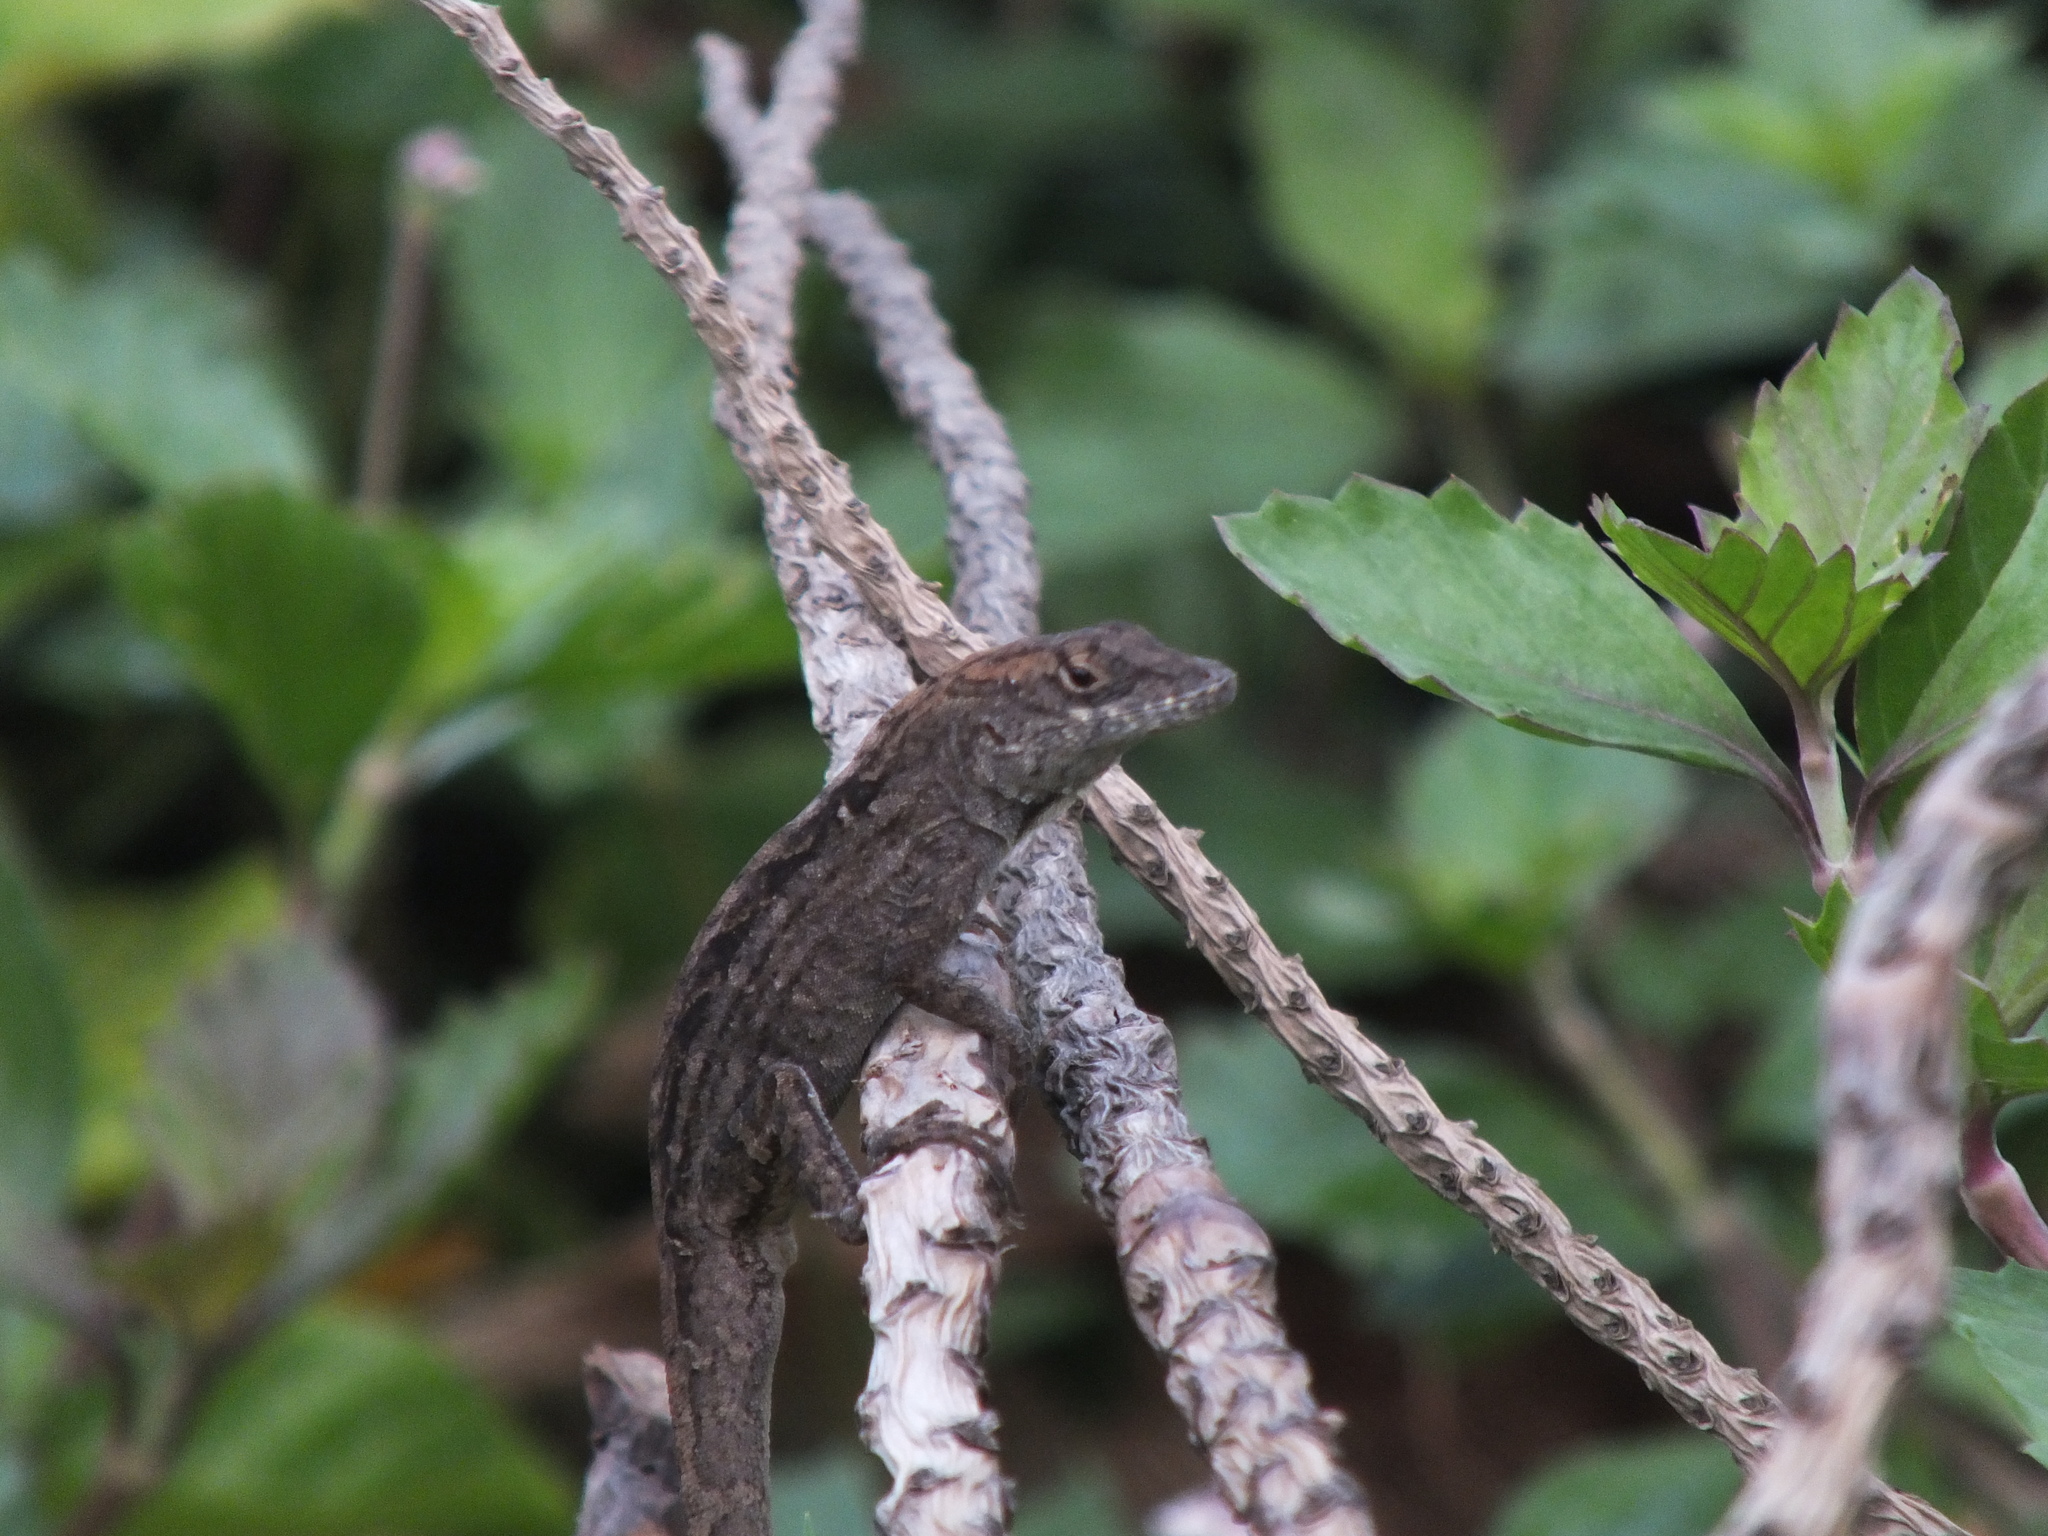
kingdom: Animalia
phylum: Chordata
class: Squamata
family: Dactyloidae
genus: Anolis
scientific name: Anolis sagrei
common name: Brown anole
